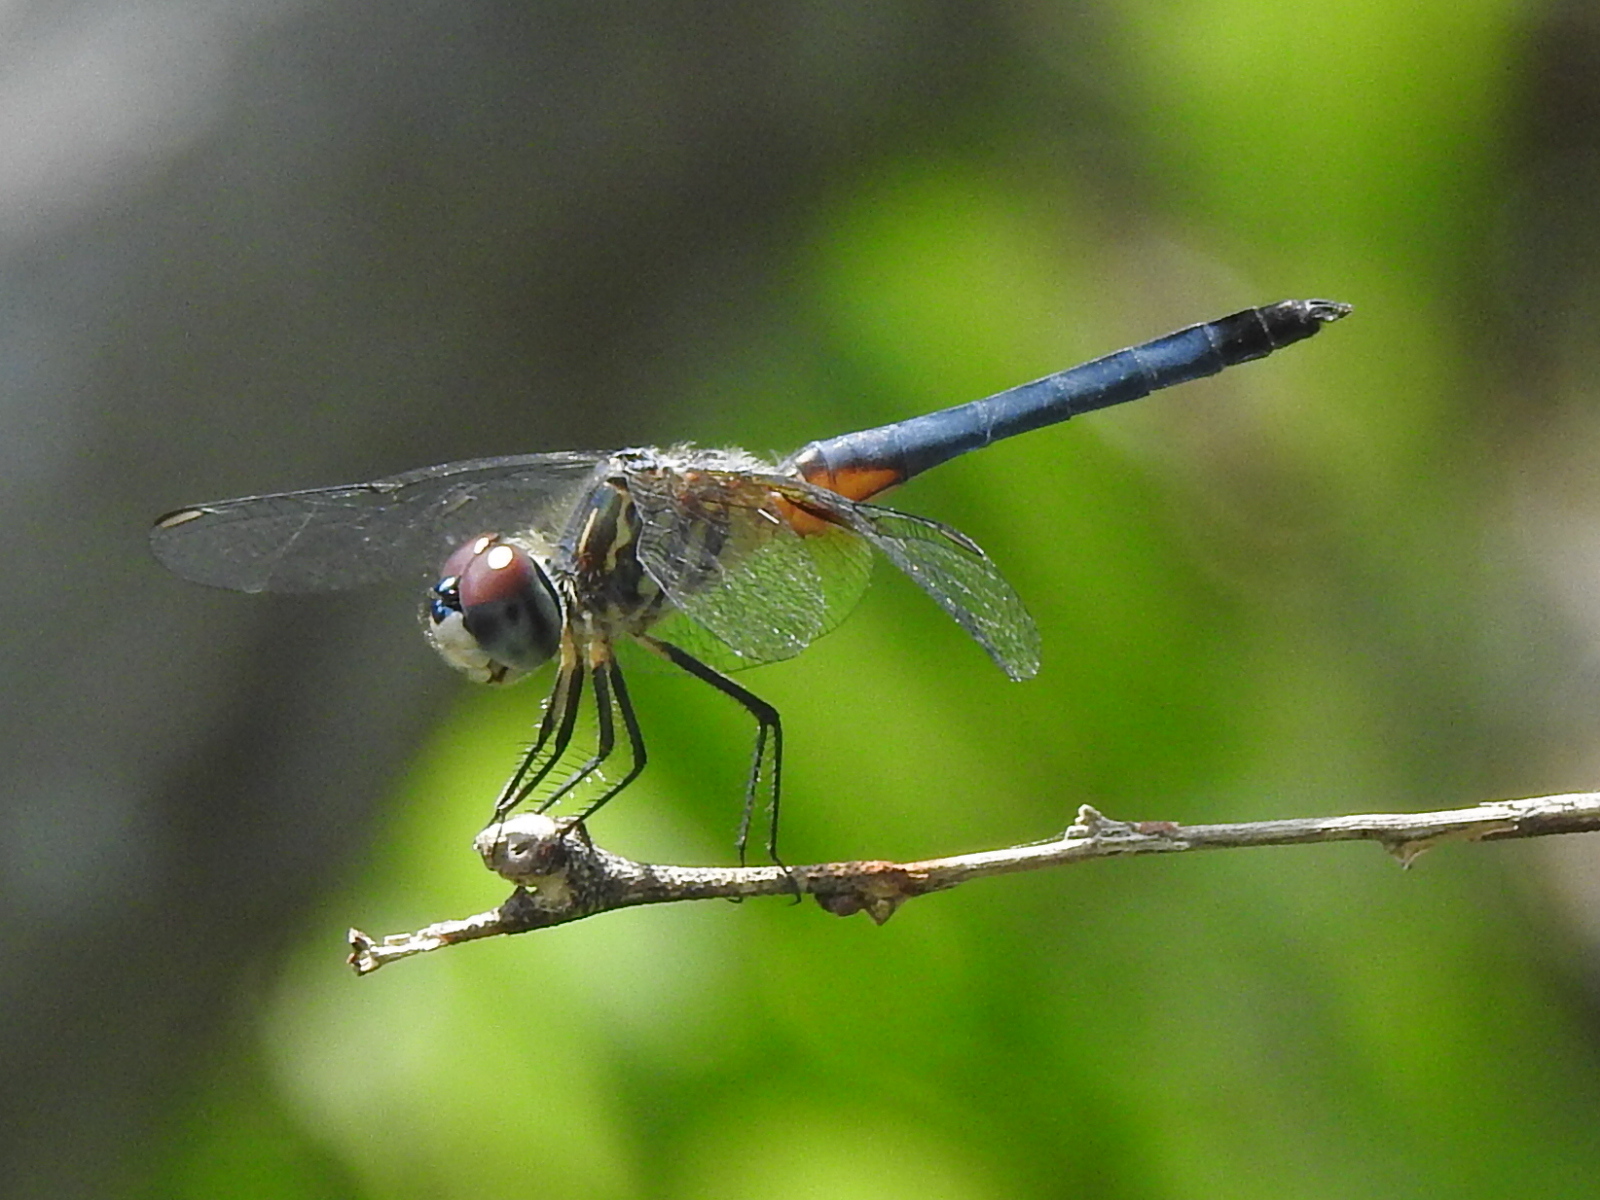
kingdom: Animalia
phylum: Arthropoda
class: Insecta
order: Odonata
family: Libellulidae
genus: Pachydiplax
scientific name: Pachydiplax longipennis
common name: Blue dasher
